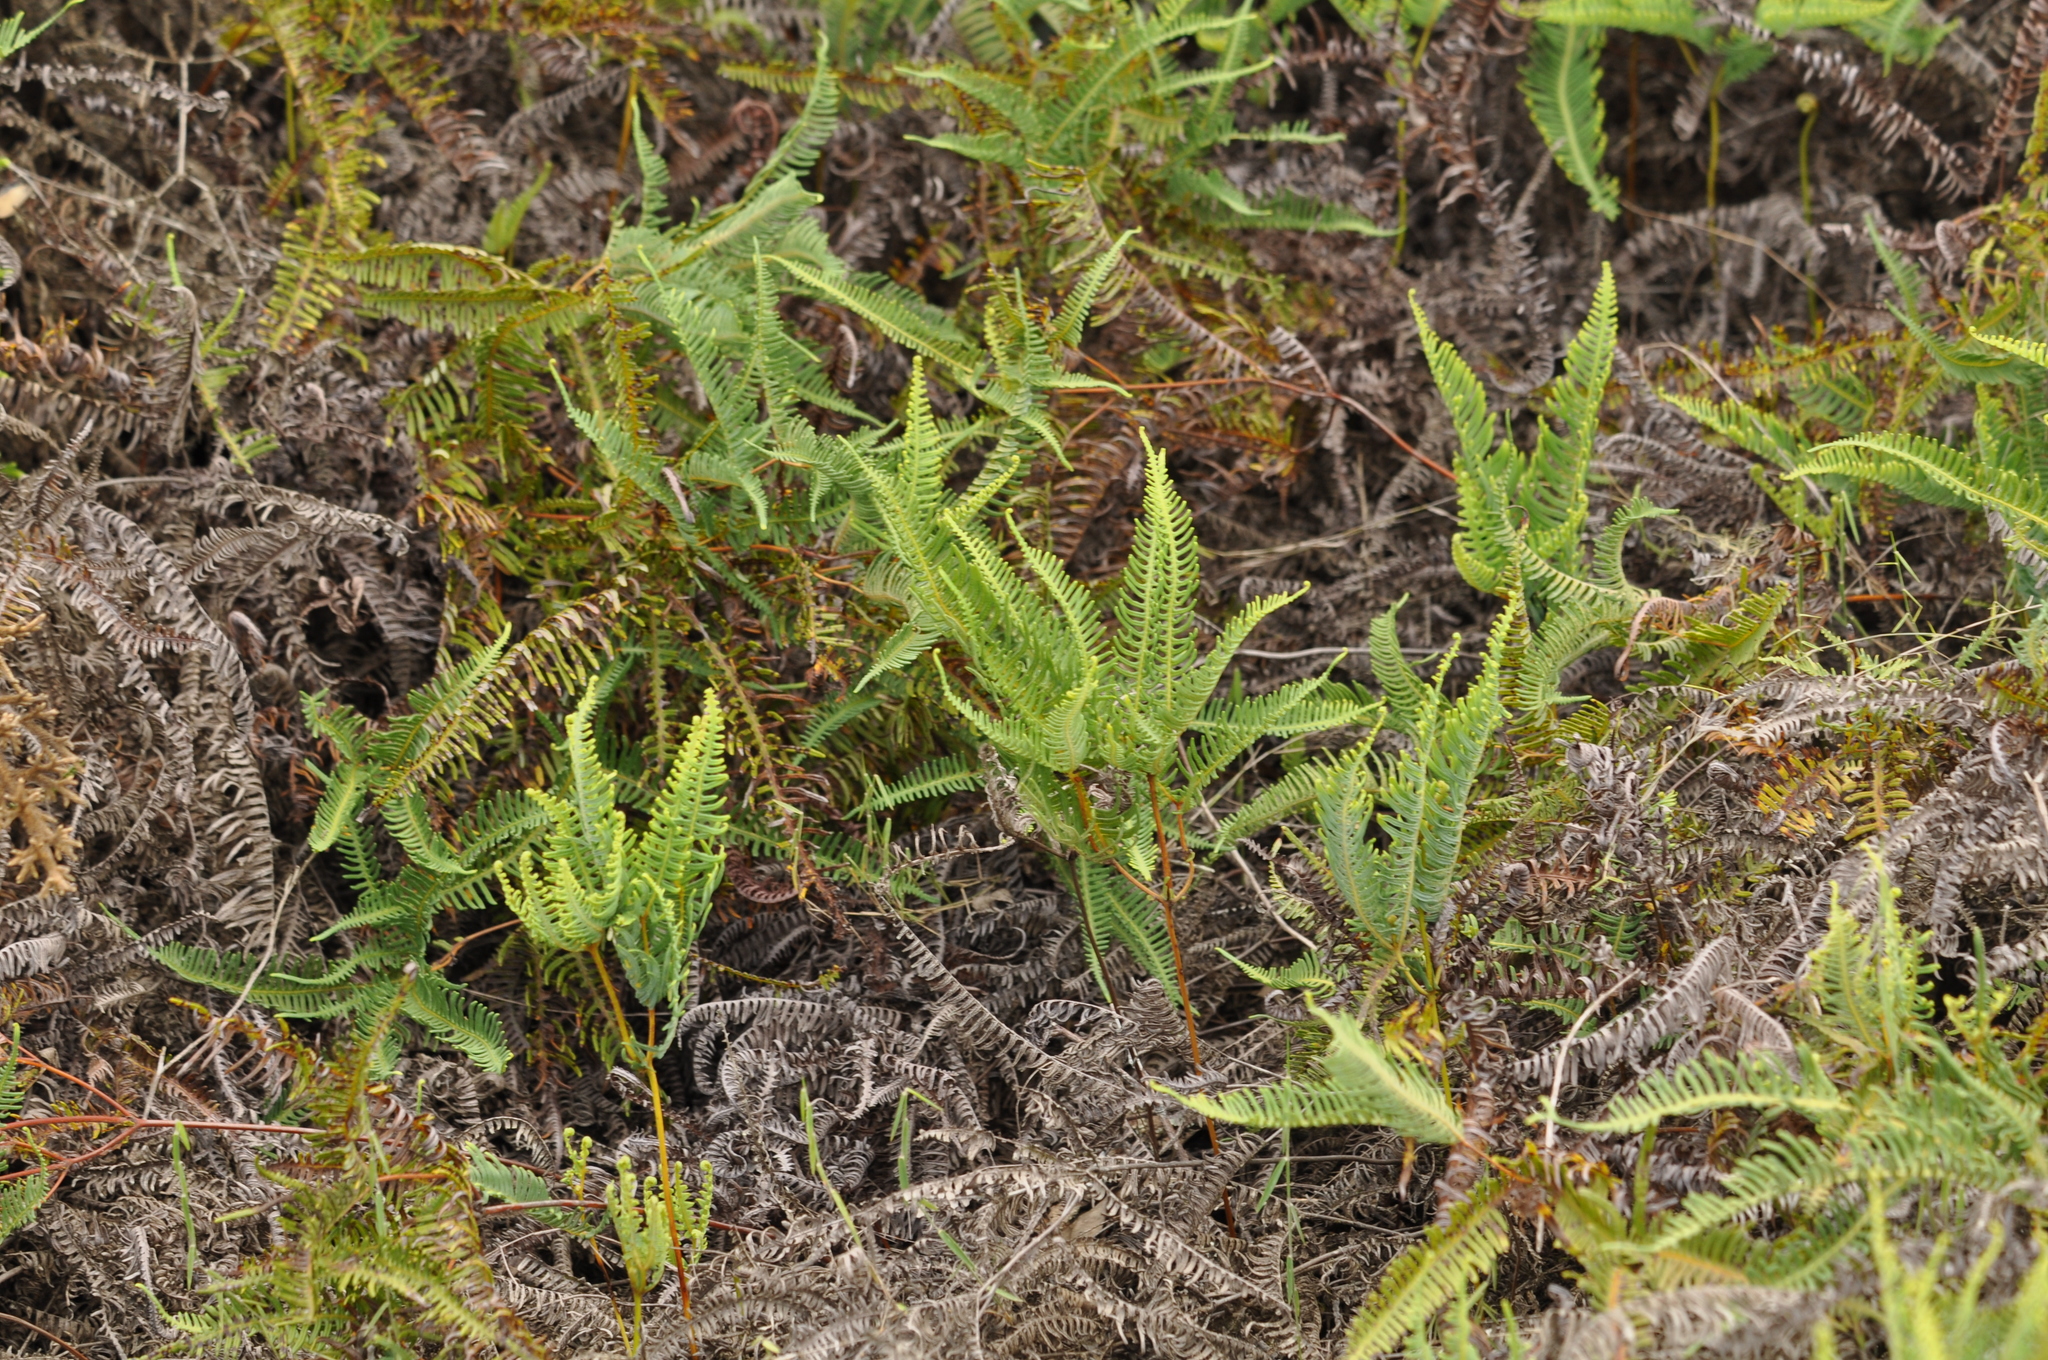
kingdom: Plantae
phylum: Tracheophyta
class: Polypodiopsida
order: Gleicheniales
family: Gleicheniaceae
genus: Dicranopteris
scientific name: Dicranopteris linearis
